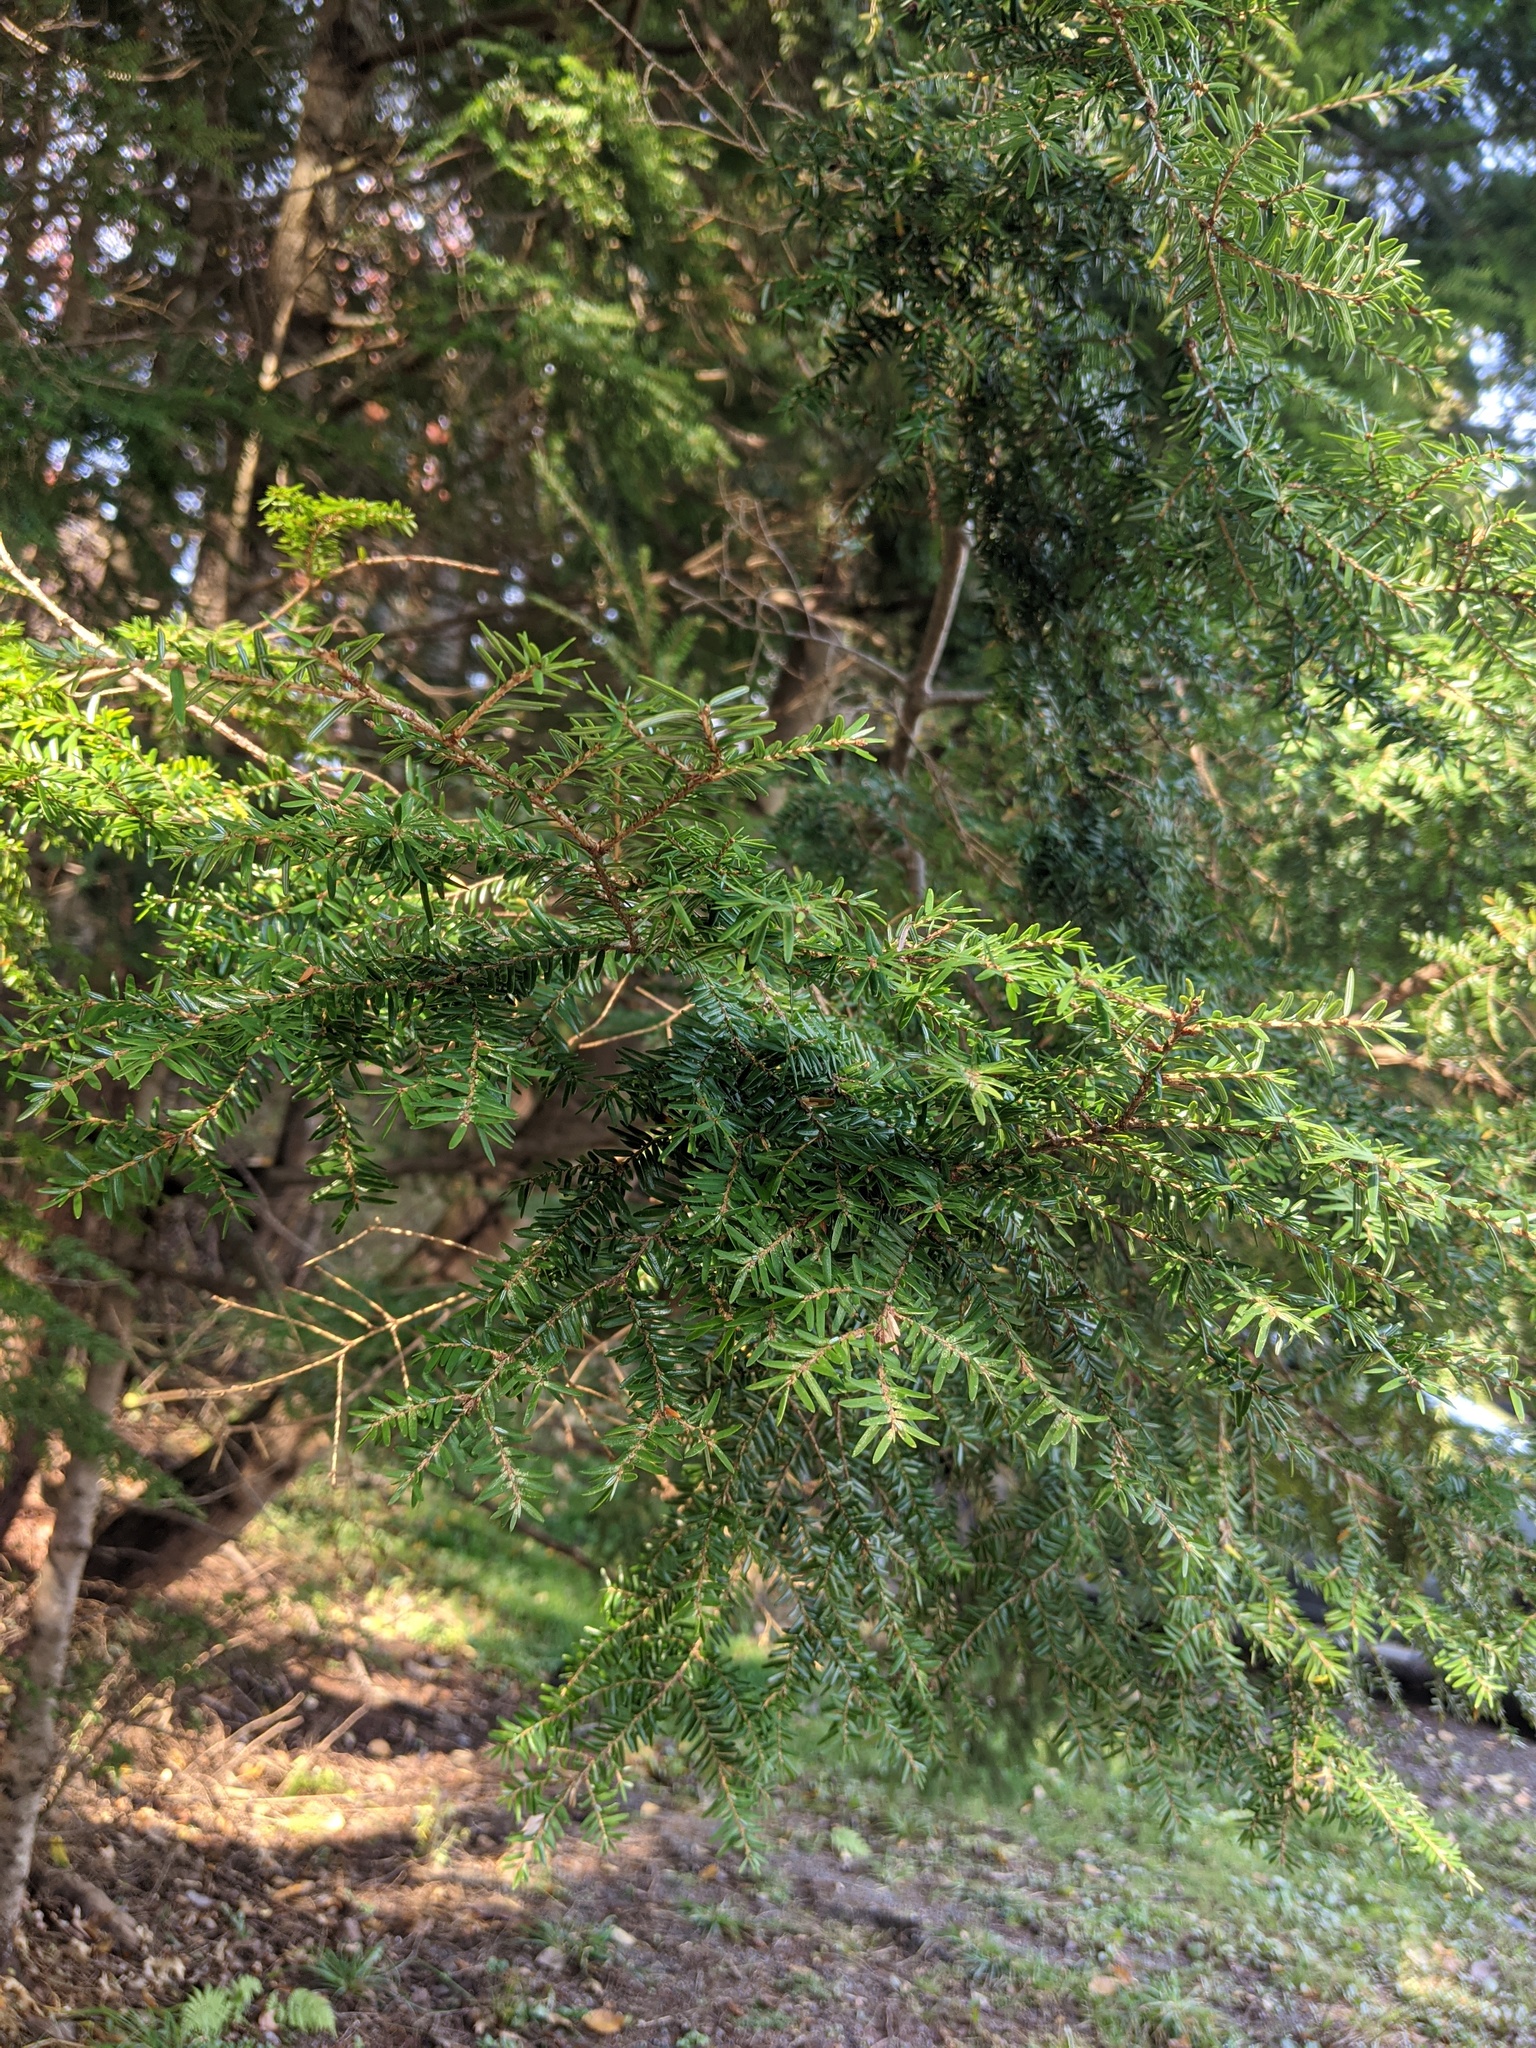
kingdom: Plantae
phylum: Tracheophyta
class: Pinopsida
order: Pinales
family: Pinaceae
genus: Tsuga
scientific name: Tsuga canadensis
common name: Eastern hemlock
